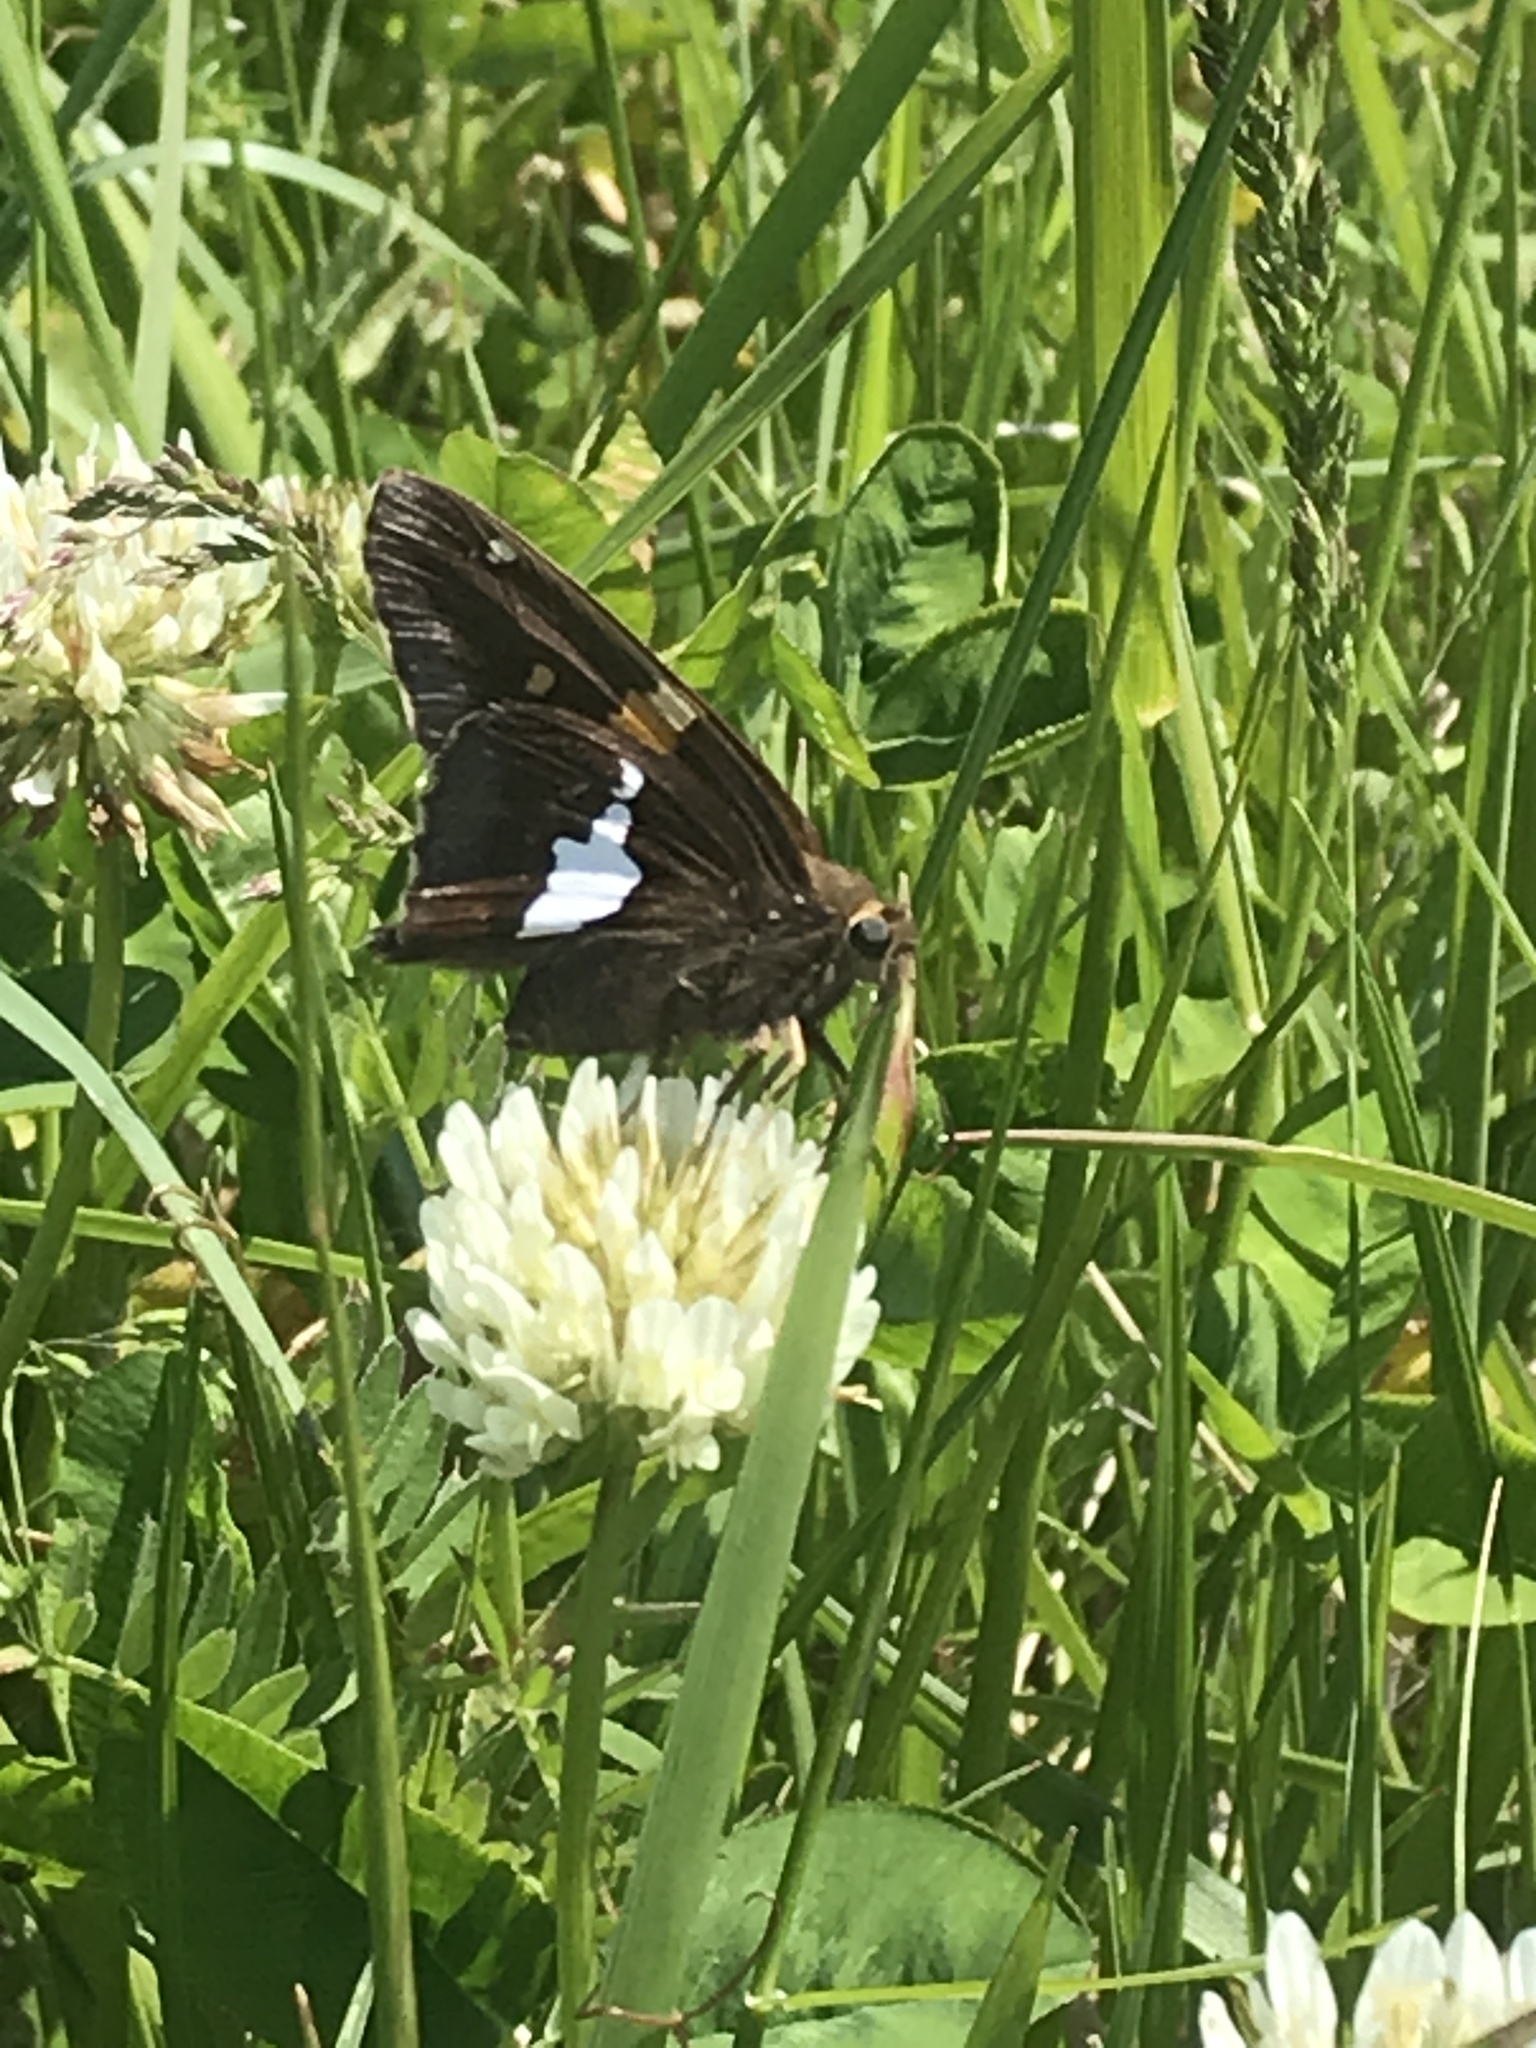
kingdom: Animalia
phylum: Arthropoda
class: Insecta
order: Lepidoptera
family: Hesperiidae
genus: Epargyreus
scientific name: Epargyreus clarus
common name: Silver-spotted skipper
